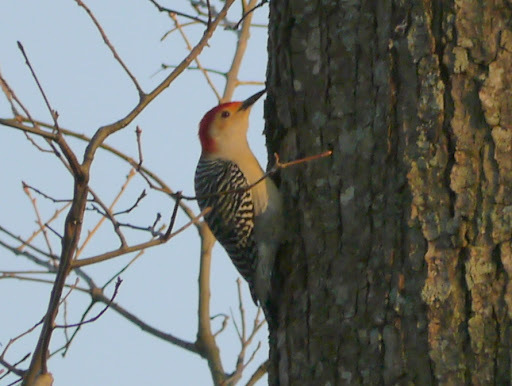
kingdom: Animalia
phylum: Chordata
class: Aves
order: Piciformes
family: Picidae
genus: Melanerpes
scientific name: Melanerpes carolinus
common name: Red-bellied woodpecker
